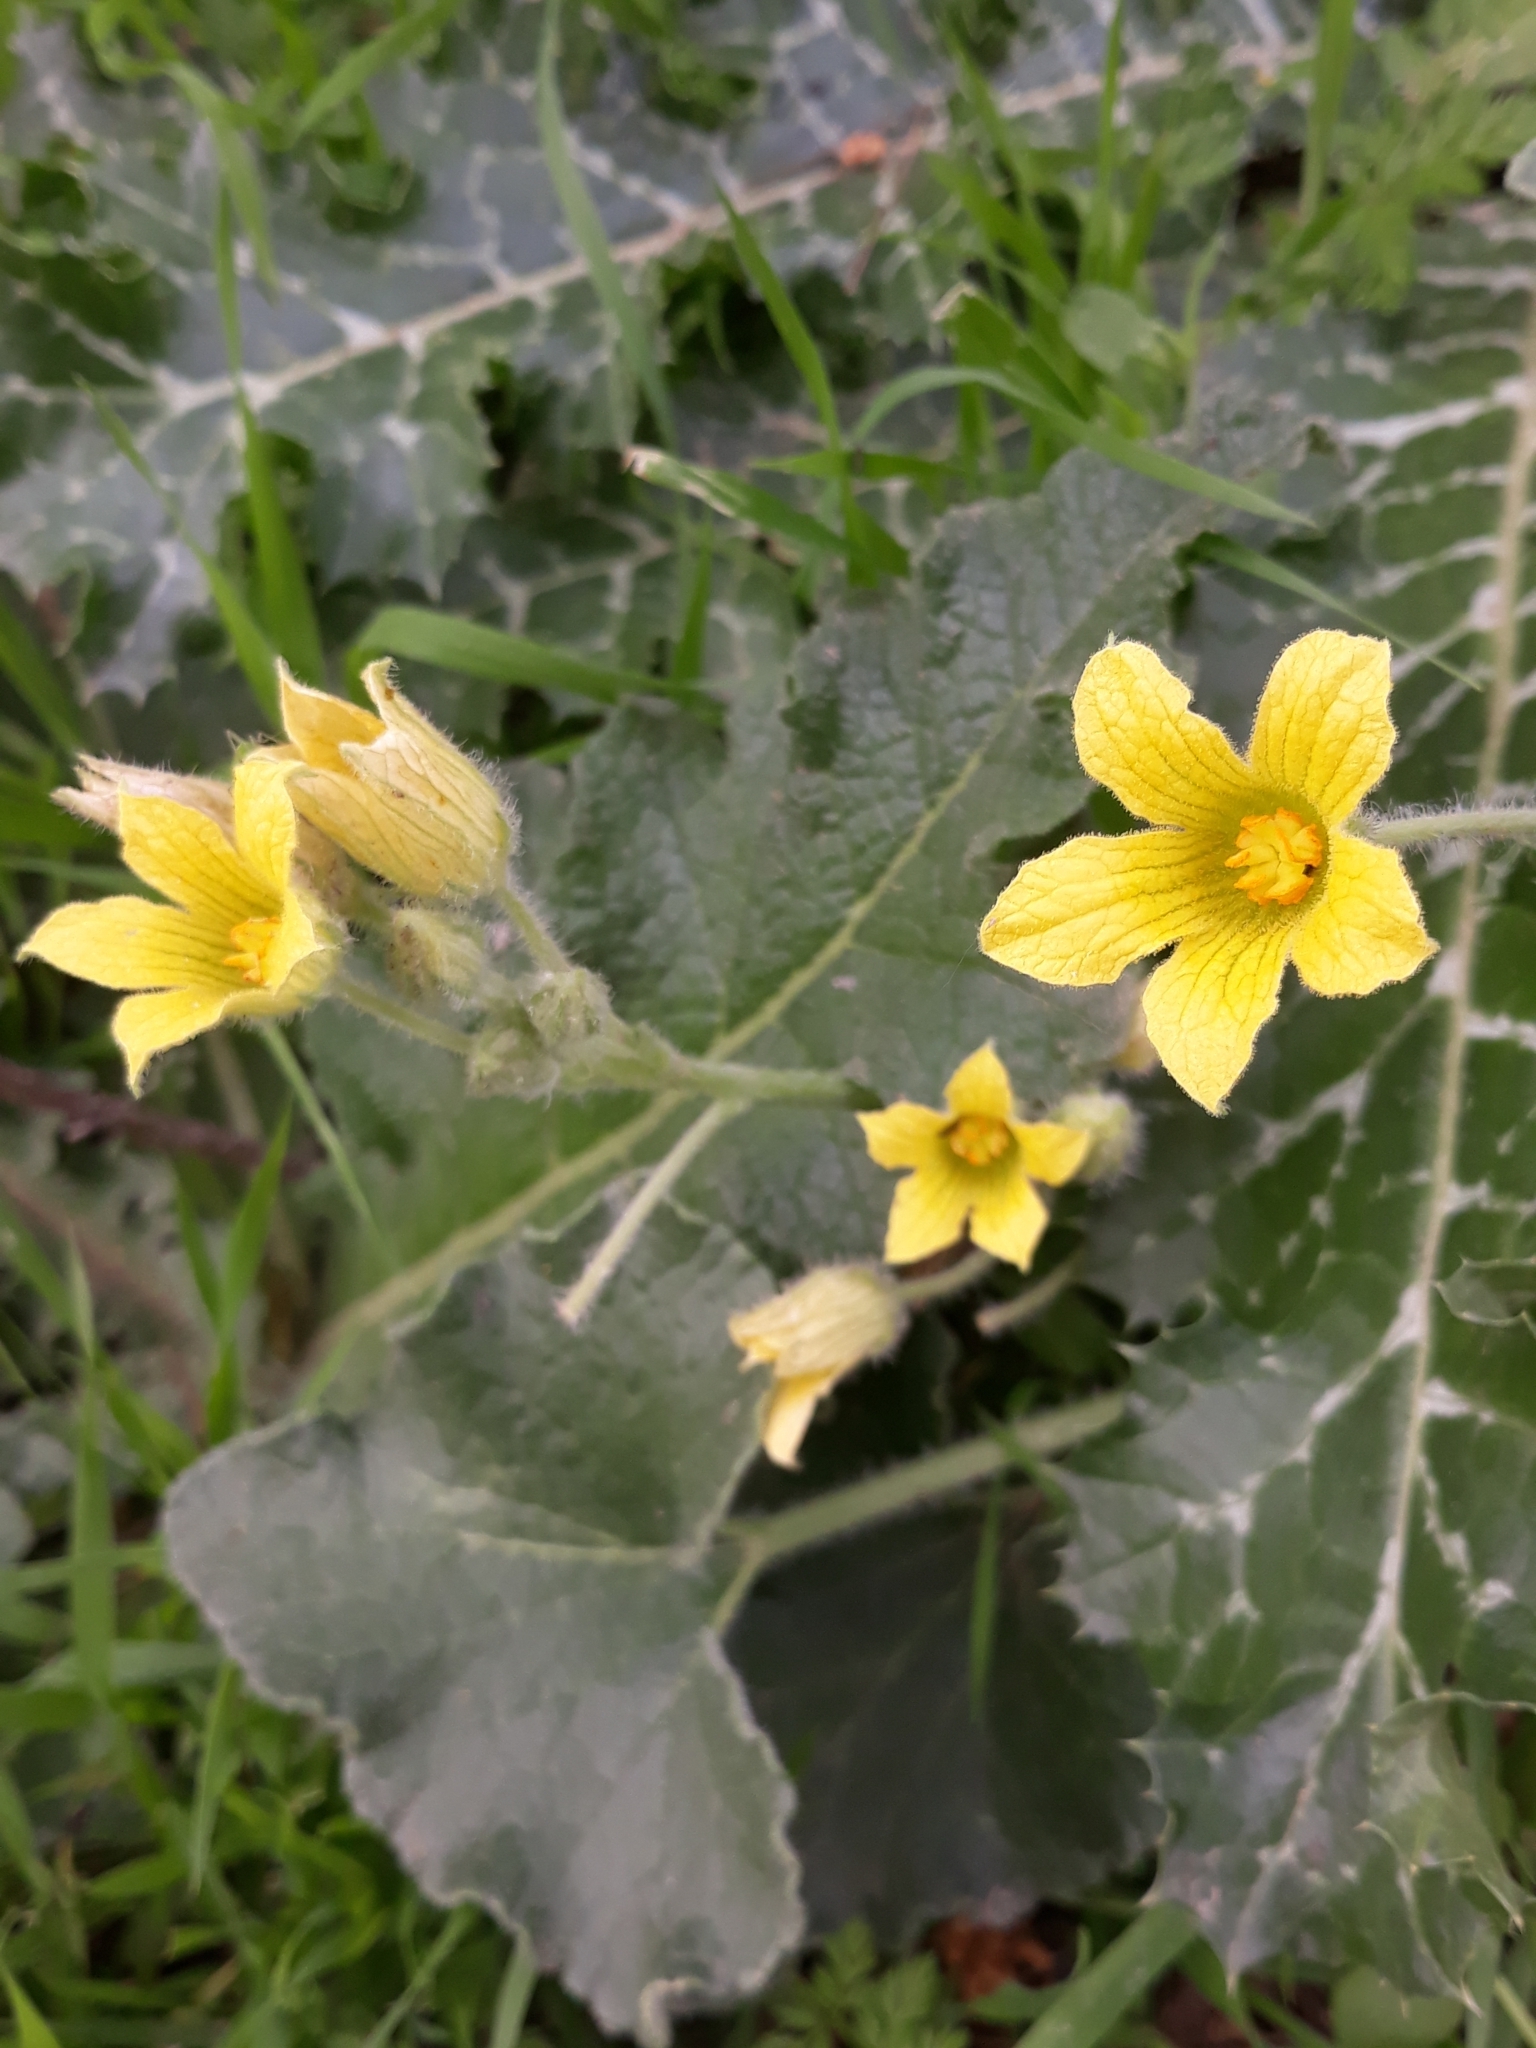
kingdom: Plantae
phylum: Tracheophyta
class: Magnoliopsida
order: Cucurbitales
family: Cucurbitaceae
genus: Ecballium
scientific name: Ecballium elaterium
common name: Squirting cucumber
